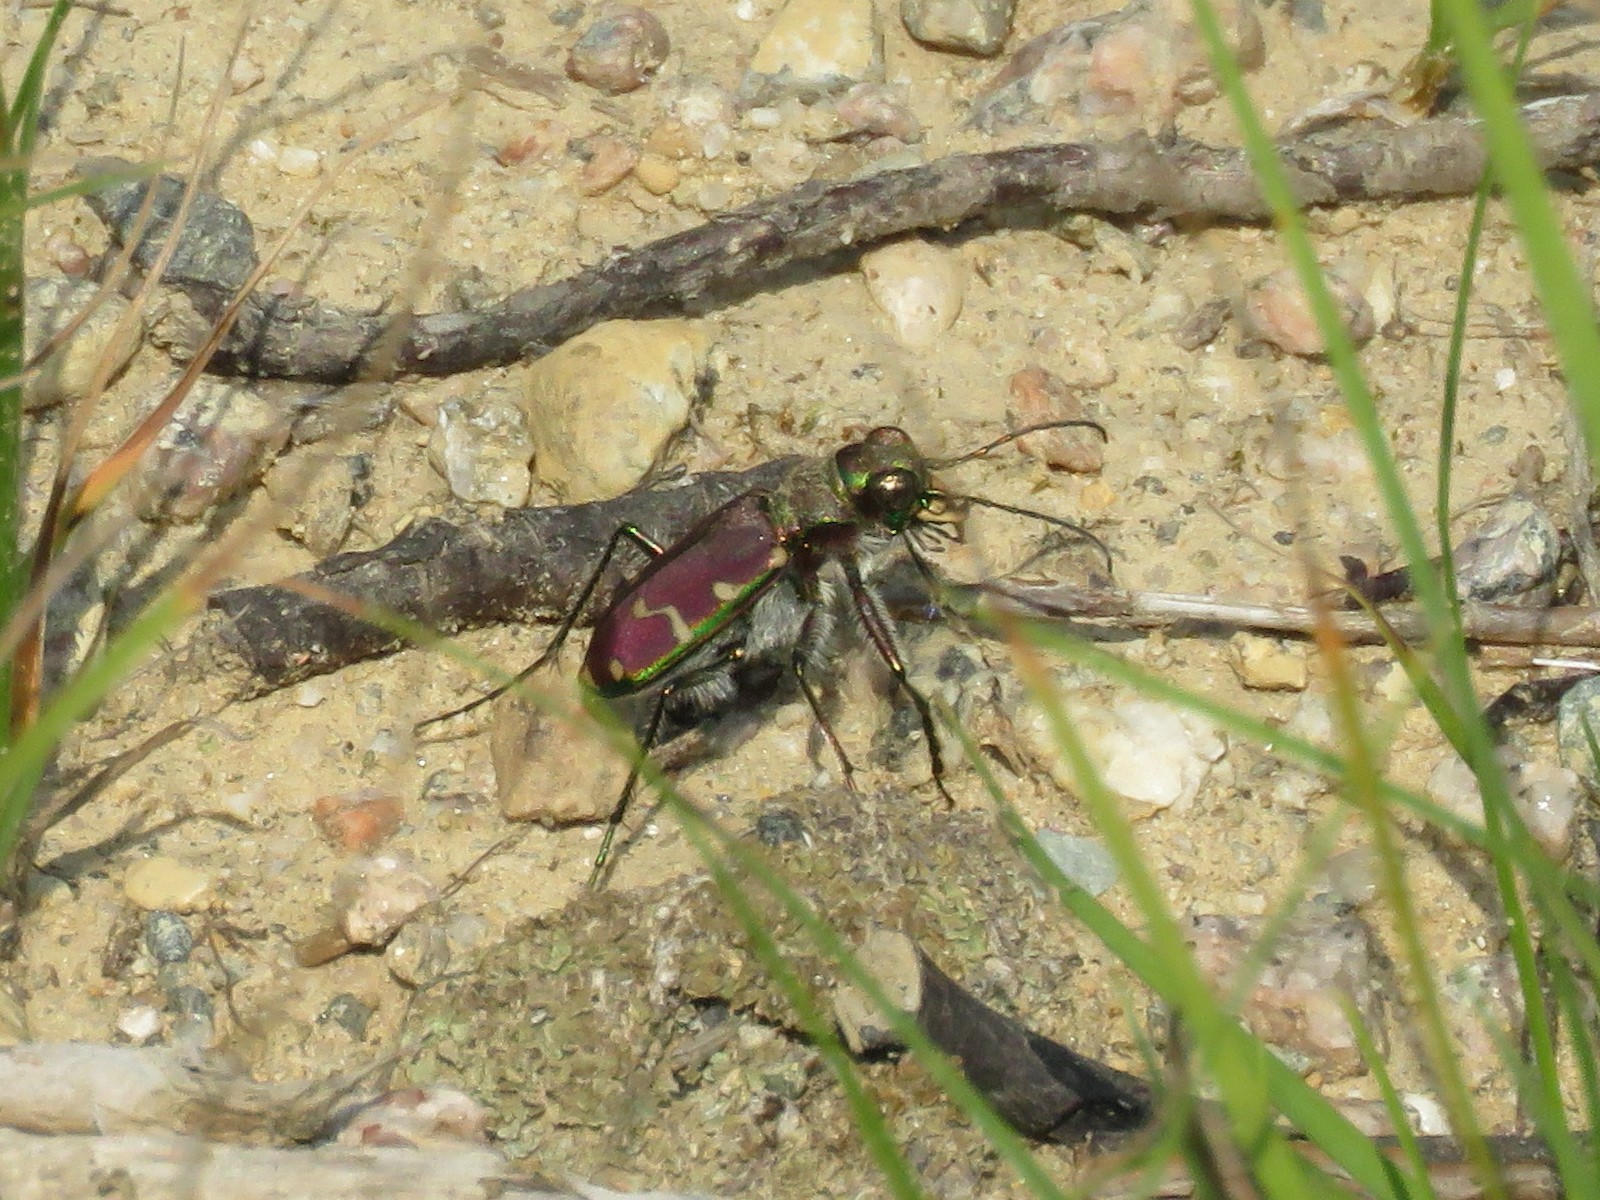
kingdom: Animalia
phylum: Arthropoda
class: Insecta
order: Coleoptera
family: Carabidae
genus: Cicindela
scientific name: Cicindela limbalis
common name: Common claybank tiger beetle
